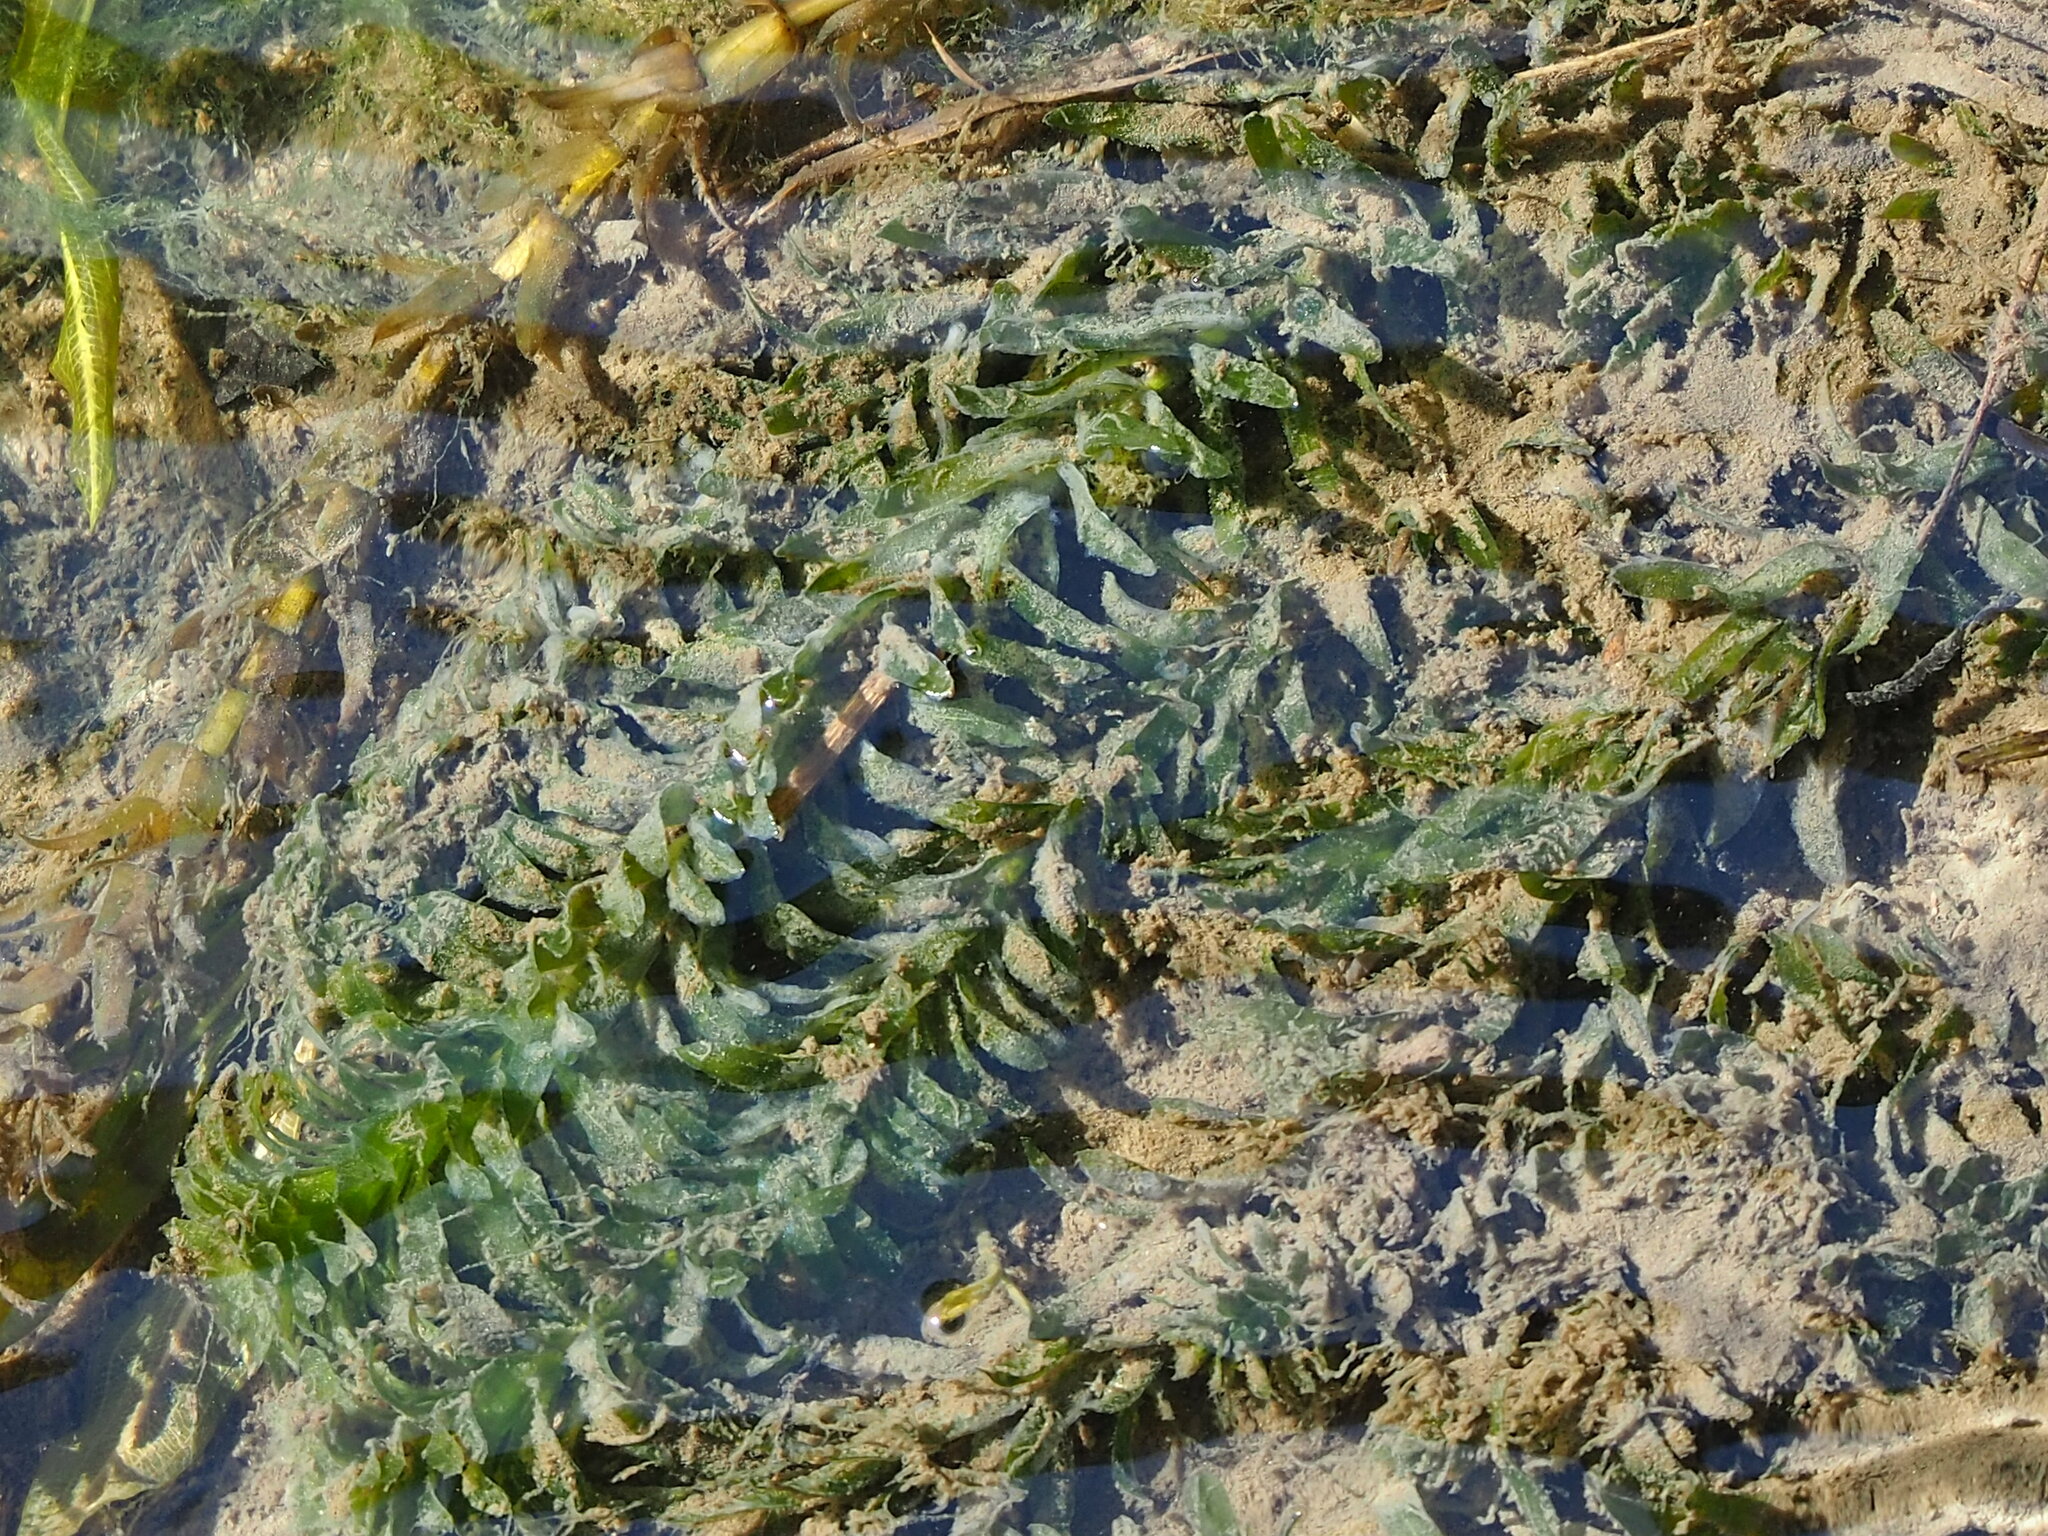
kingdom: Plantae
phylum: Tracheophyta
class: Liliopsida
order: Alismatales
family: Hydrocharitaceae
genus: Elodea
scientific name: Elodea densa
